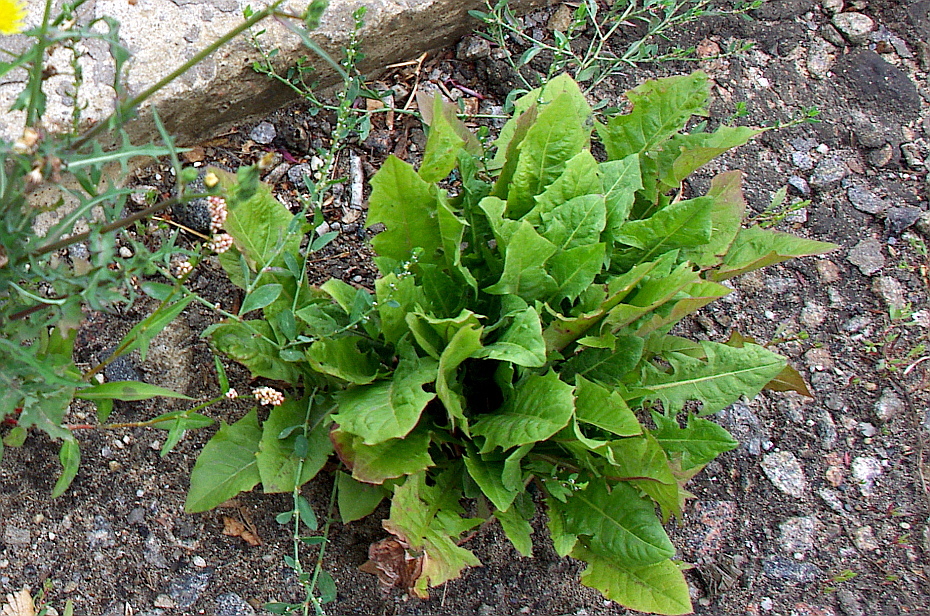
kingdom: Plantae
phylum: Tracheophyta
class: Magnoliopsida
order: Asterales
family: Asteraceae
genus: Taraxacum
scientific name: Taraxacum officinale
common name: Common dandelion
